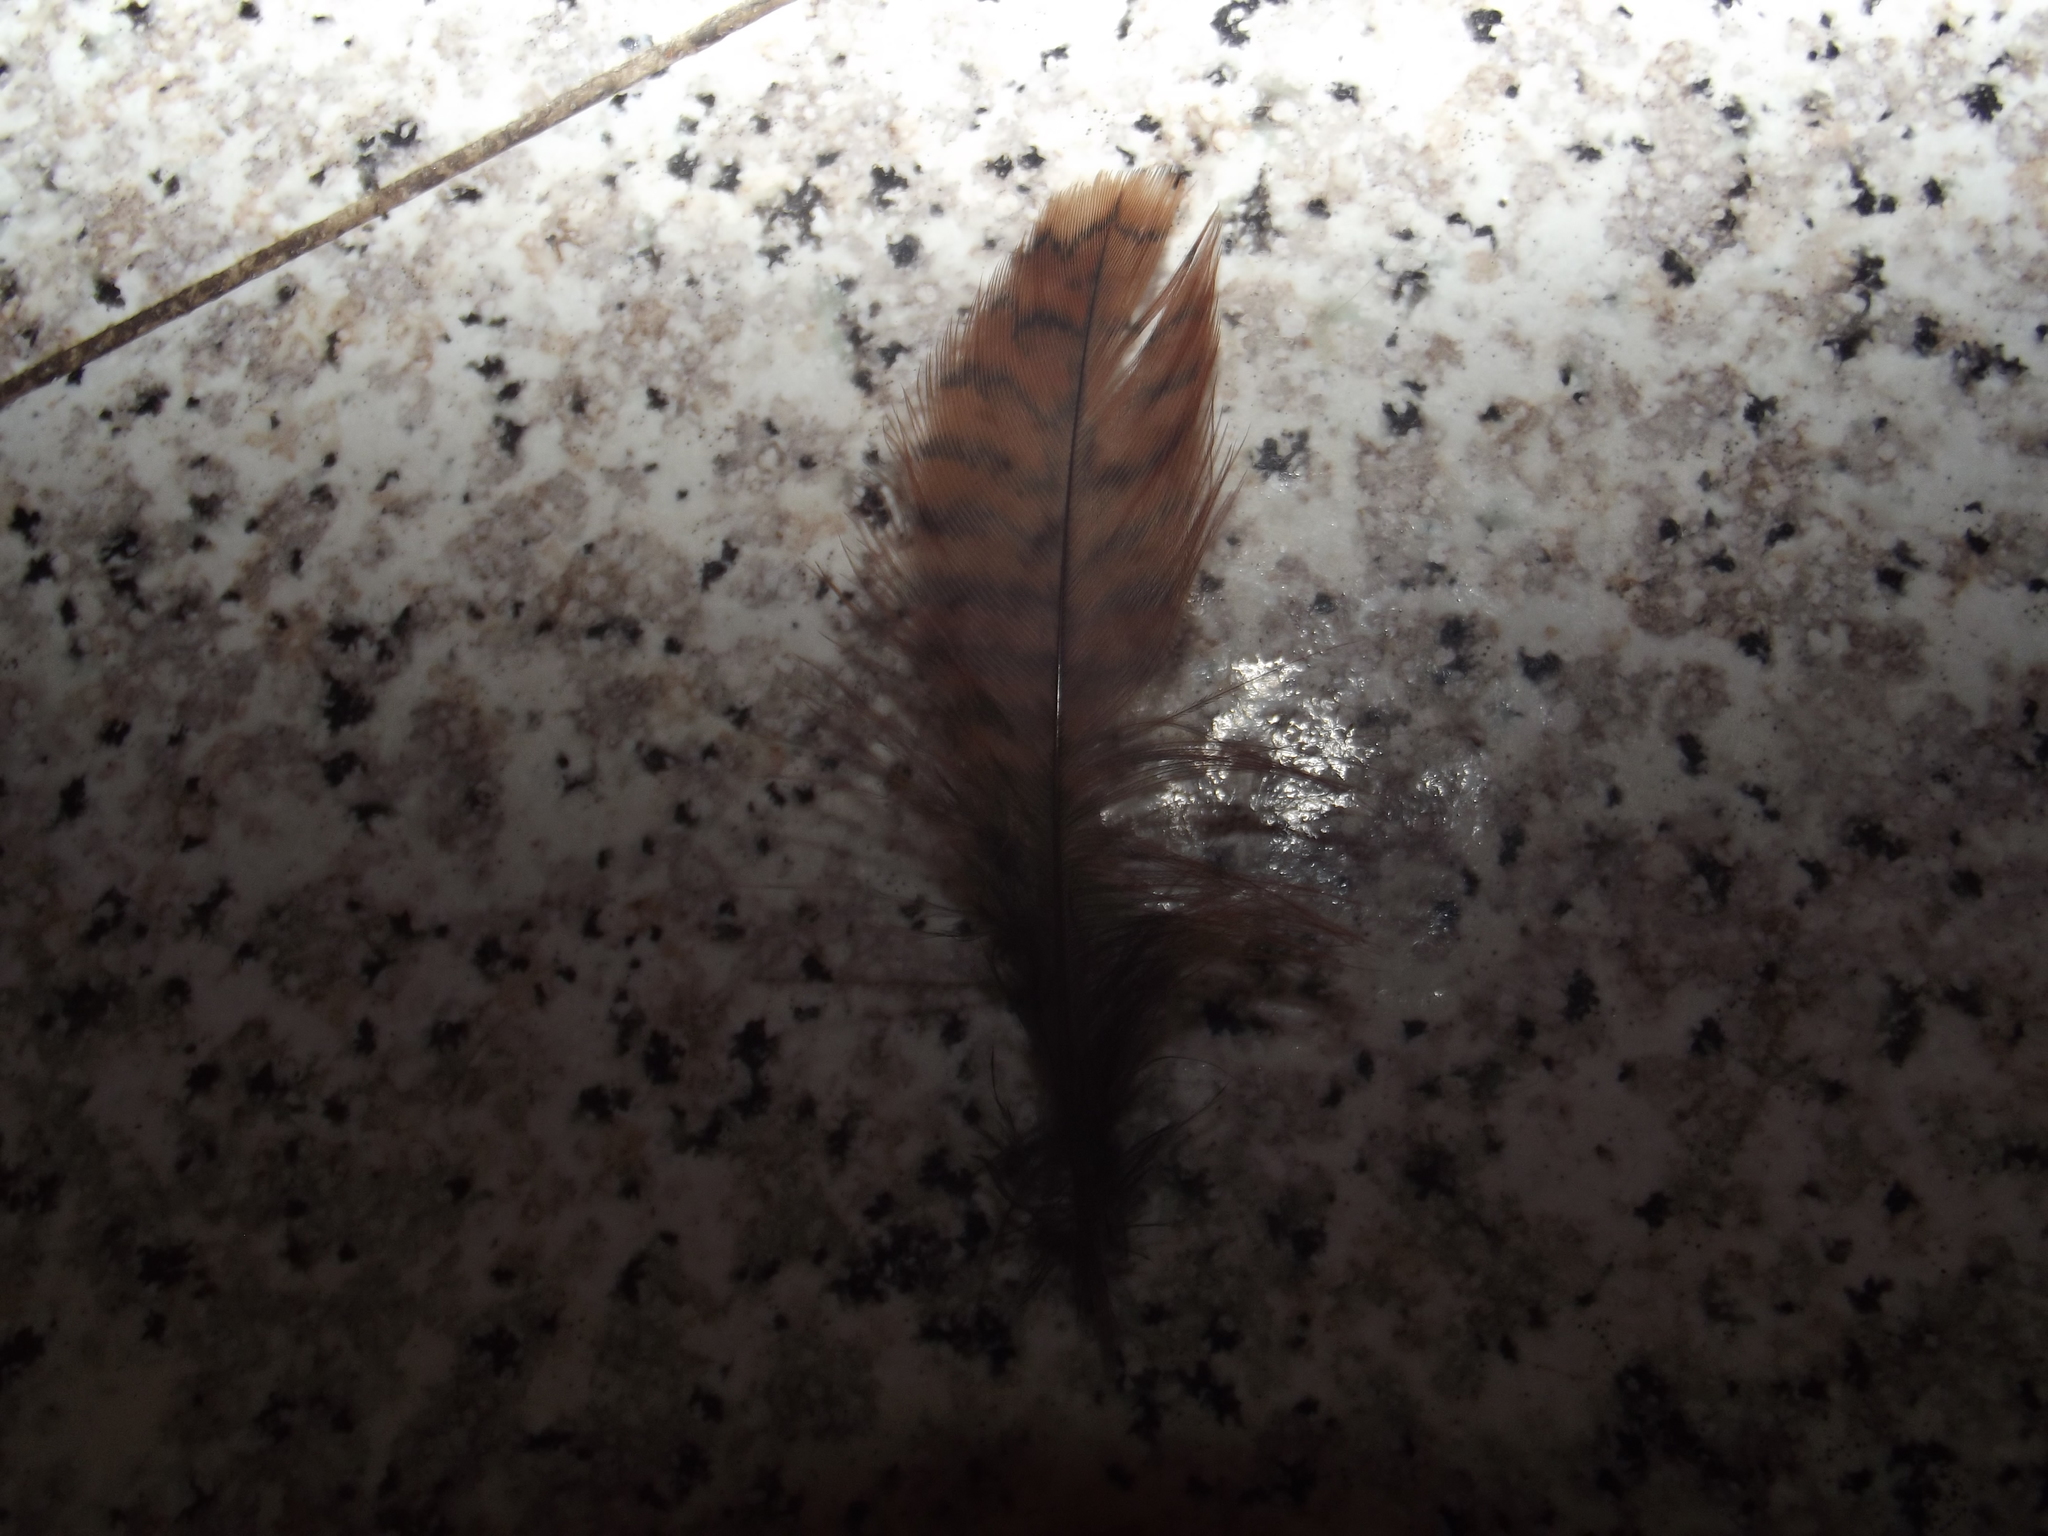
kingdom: Animalia
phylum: Chordata
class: Aves
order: Charadriiformes
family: Scolopacidae
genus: Scolopax
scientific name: Scolopax rusticola
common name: Eurasian woodcock
